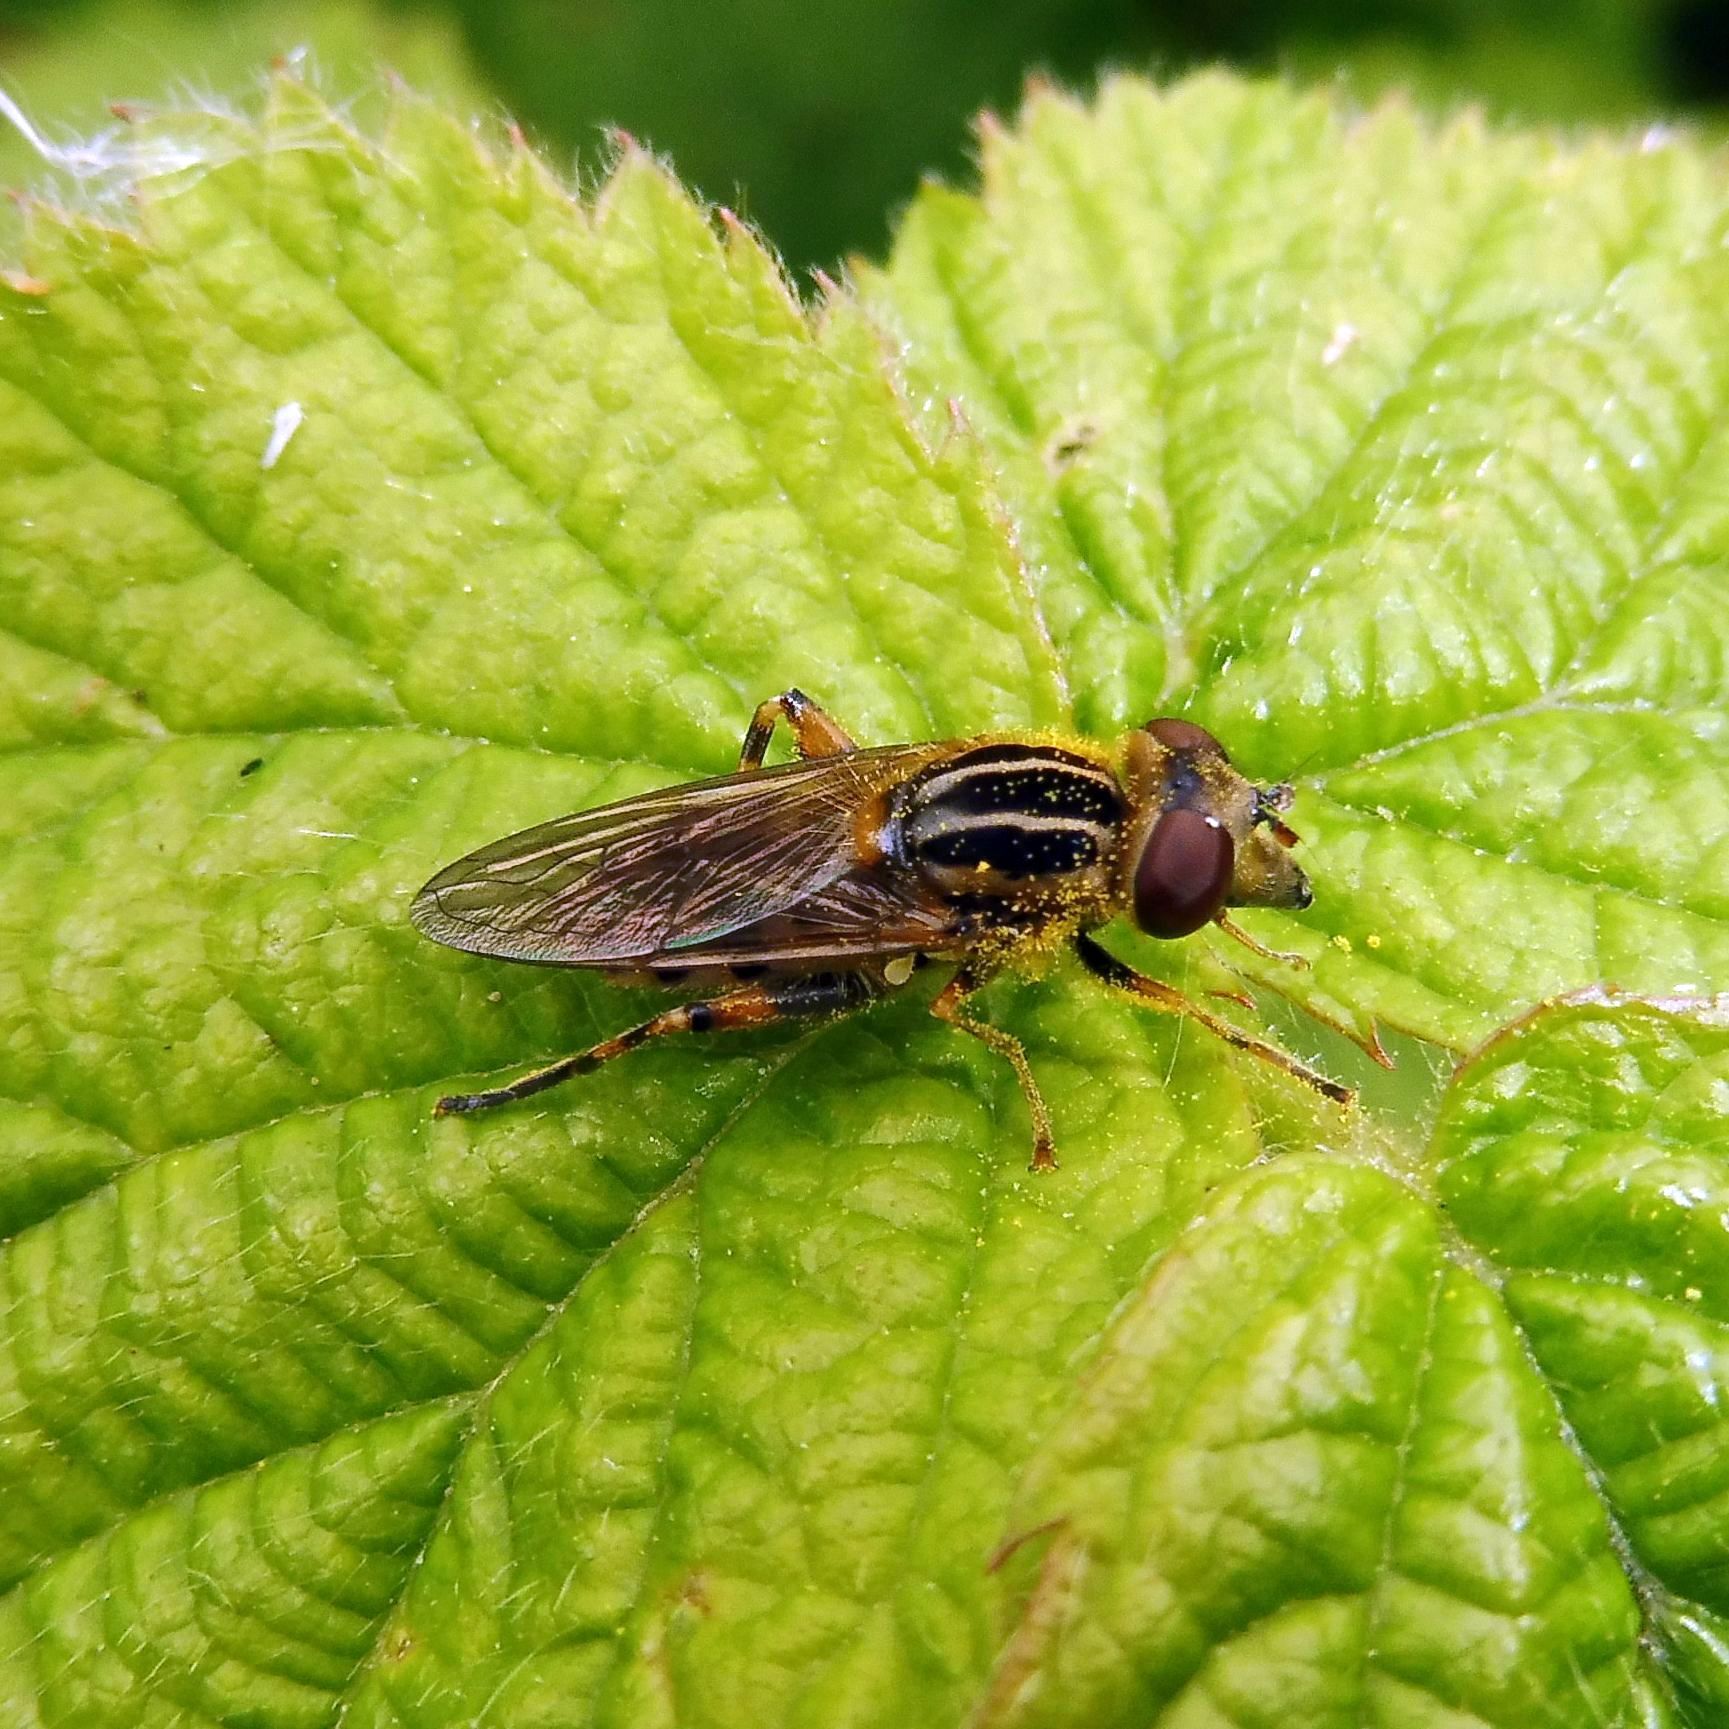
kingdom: Animalia
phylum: Arthropoda
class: Insecta
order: Diptera
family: Syrphidae
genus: Eurimyia
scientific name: Eurimyia lineatus
